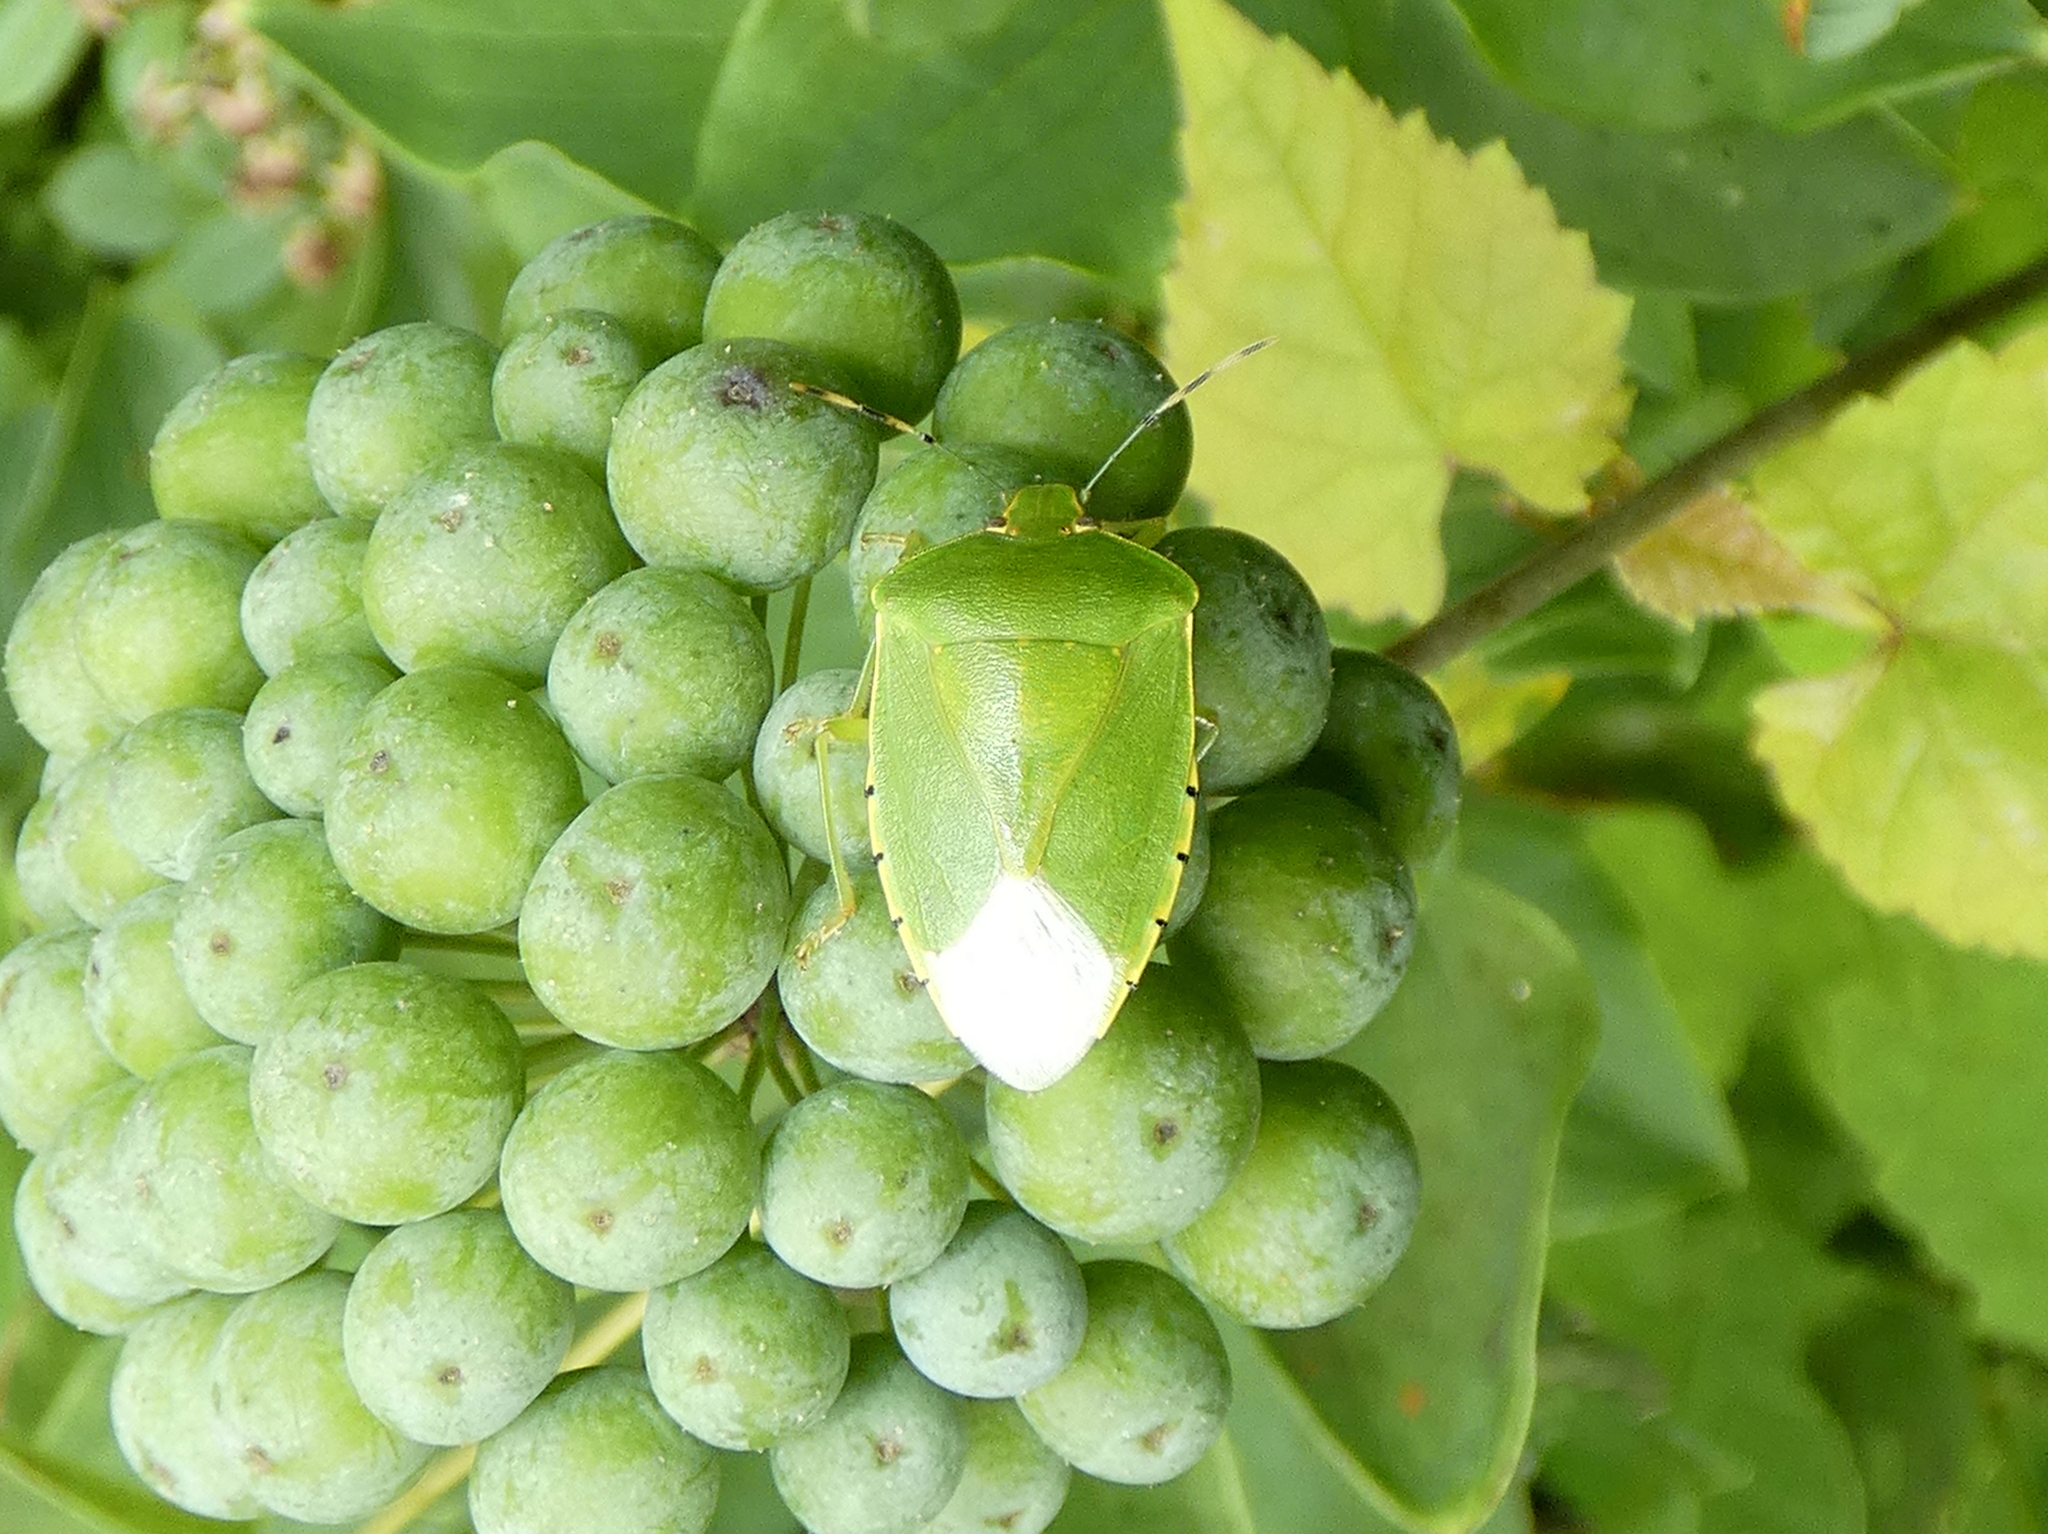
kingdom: Animalia
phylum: Arthropoda
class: Insecta
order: Hemiptera
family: Pentatomidae
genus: Chinavia
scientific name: Chinavia hilaris
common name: Green stink bug
